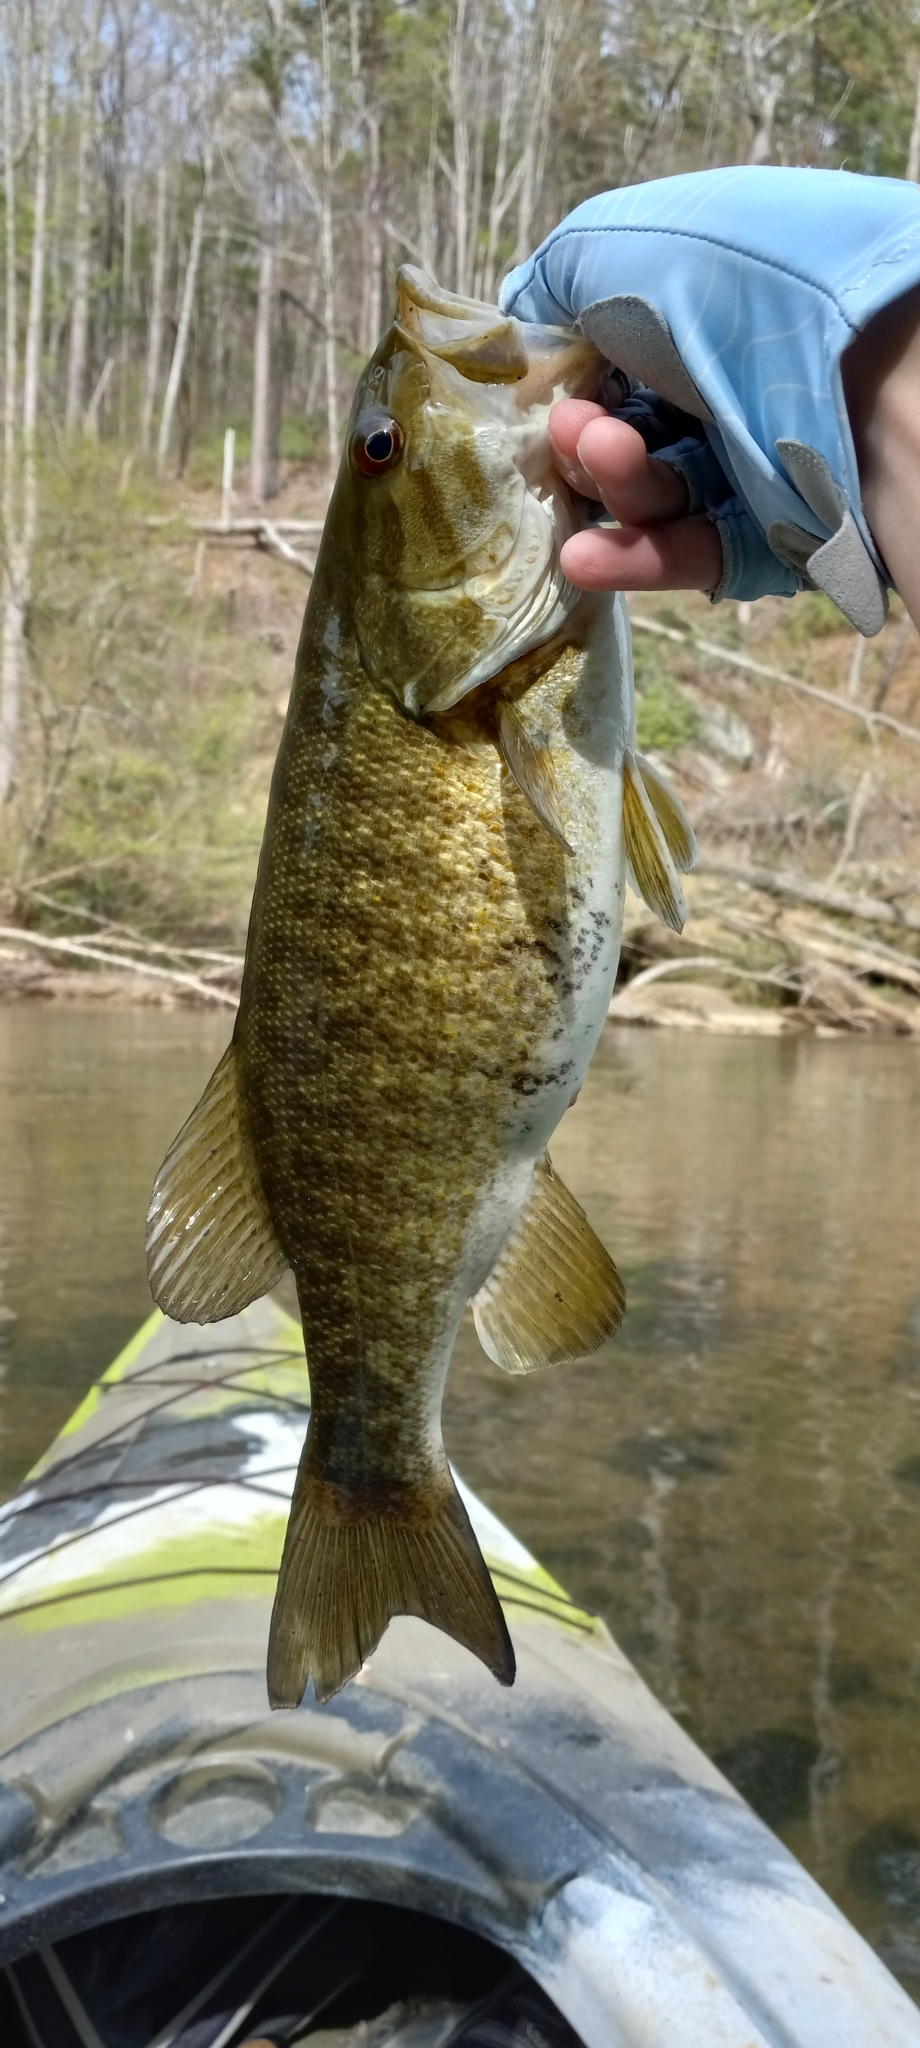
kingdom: Animalia
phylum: Chordata
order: Perciformes
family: Centrarchidae
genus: Micropterus
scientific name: Micropterus dolomieu
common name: Smallmouth bass
